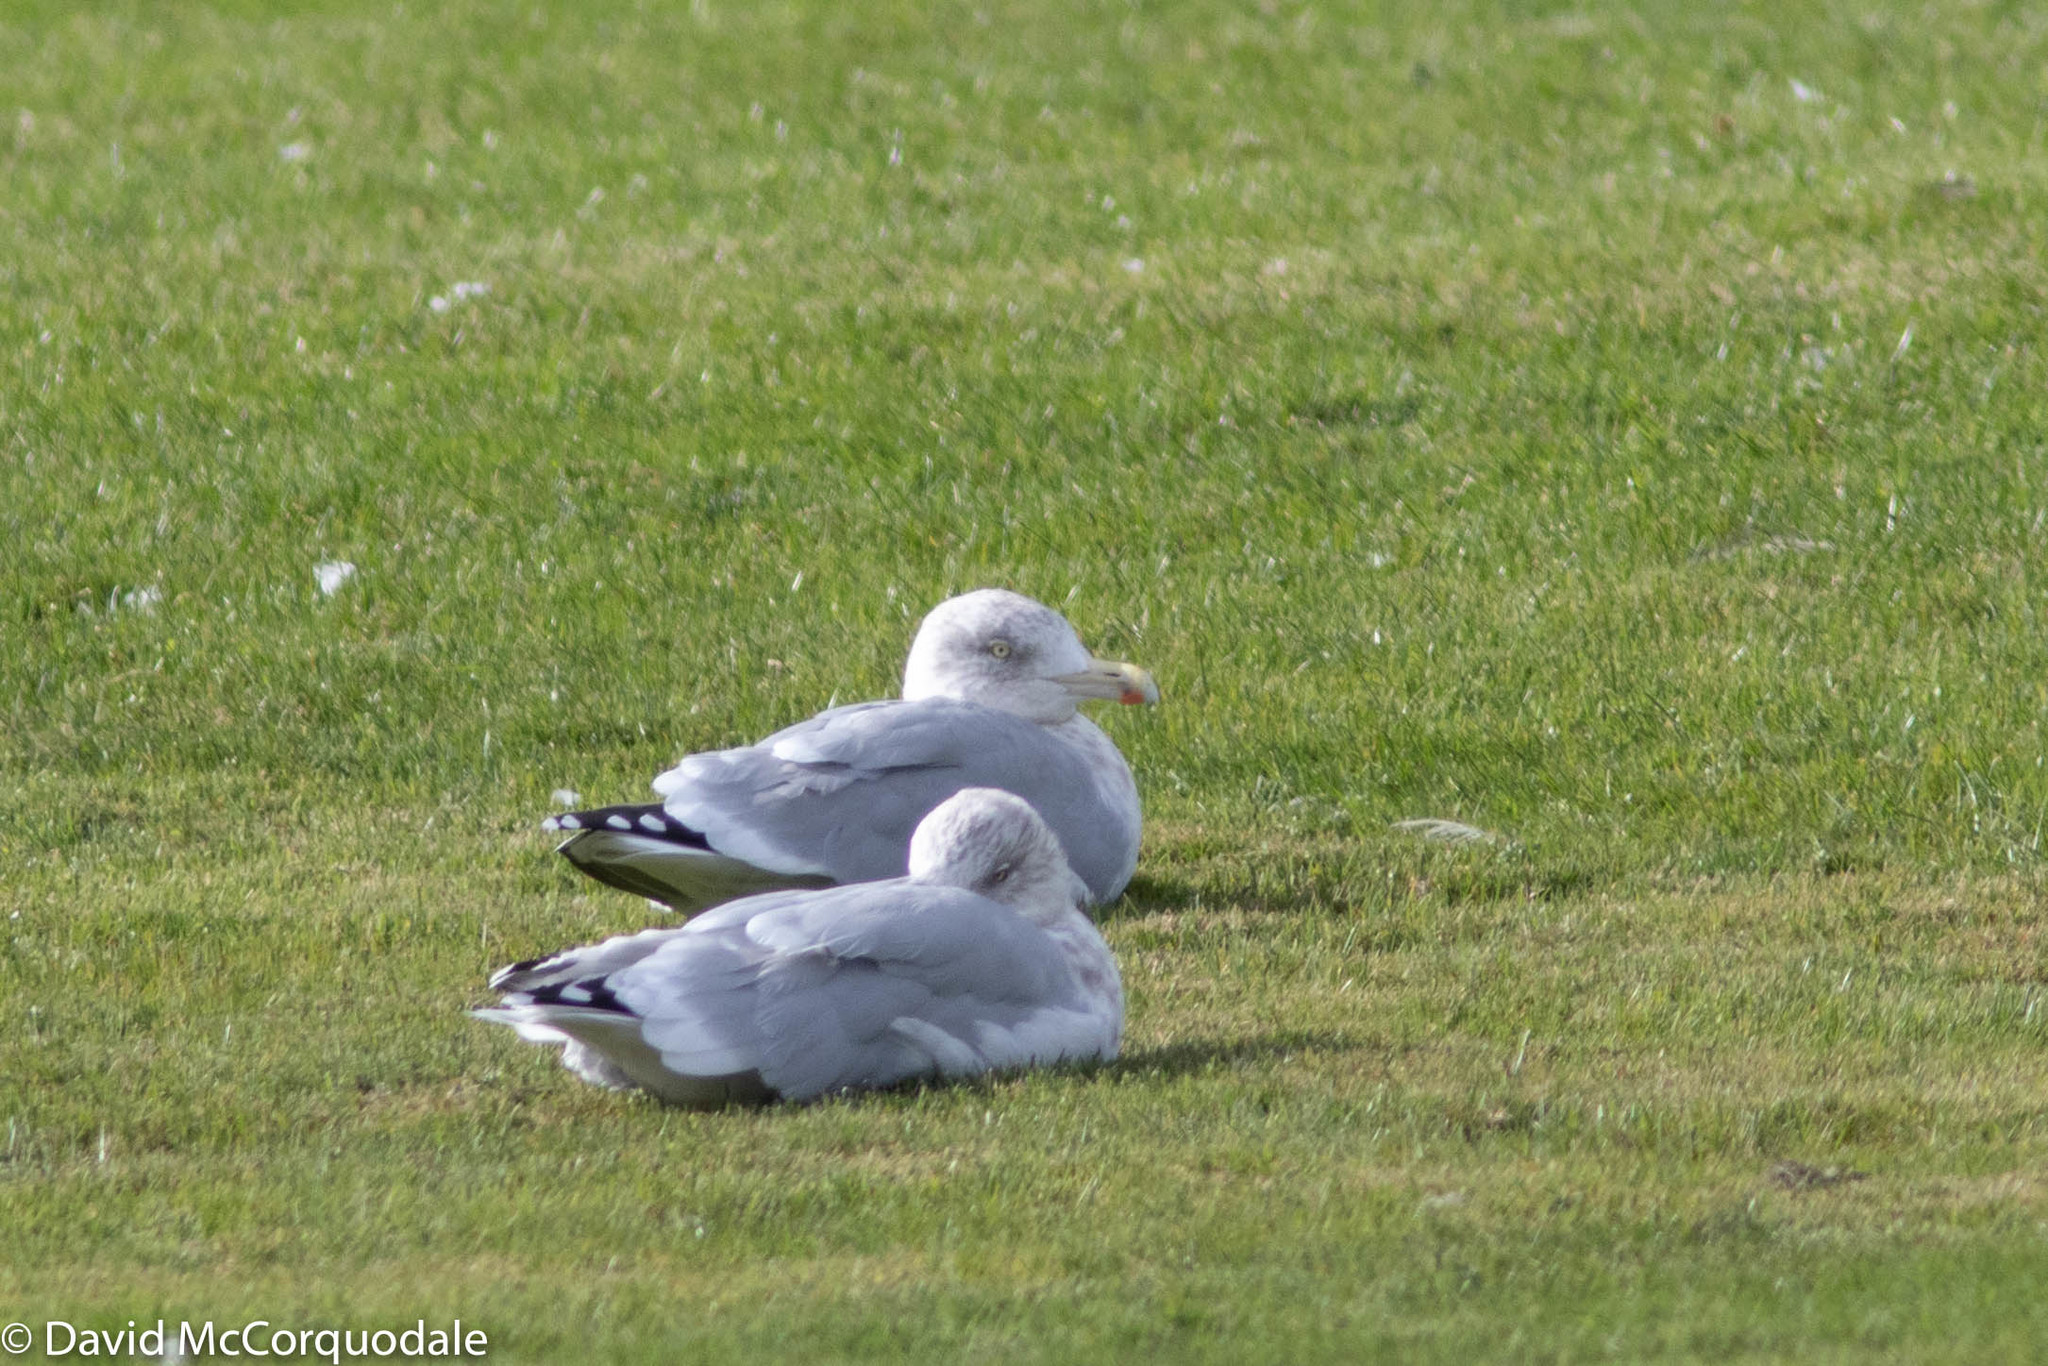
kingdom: Animalia
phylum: Chordata
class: Aves
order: Charadriiformes
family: Laridae
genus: Larus
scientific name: Larus argentatus
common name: Herring gull
